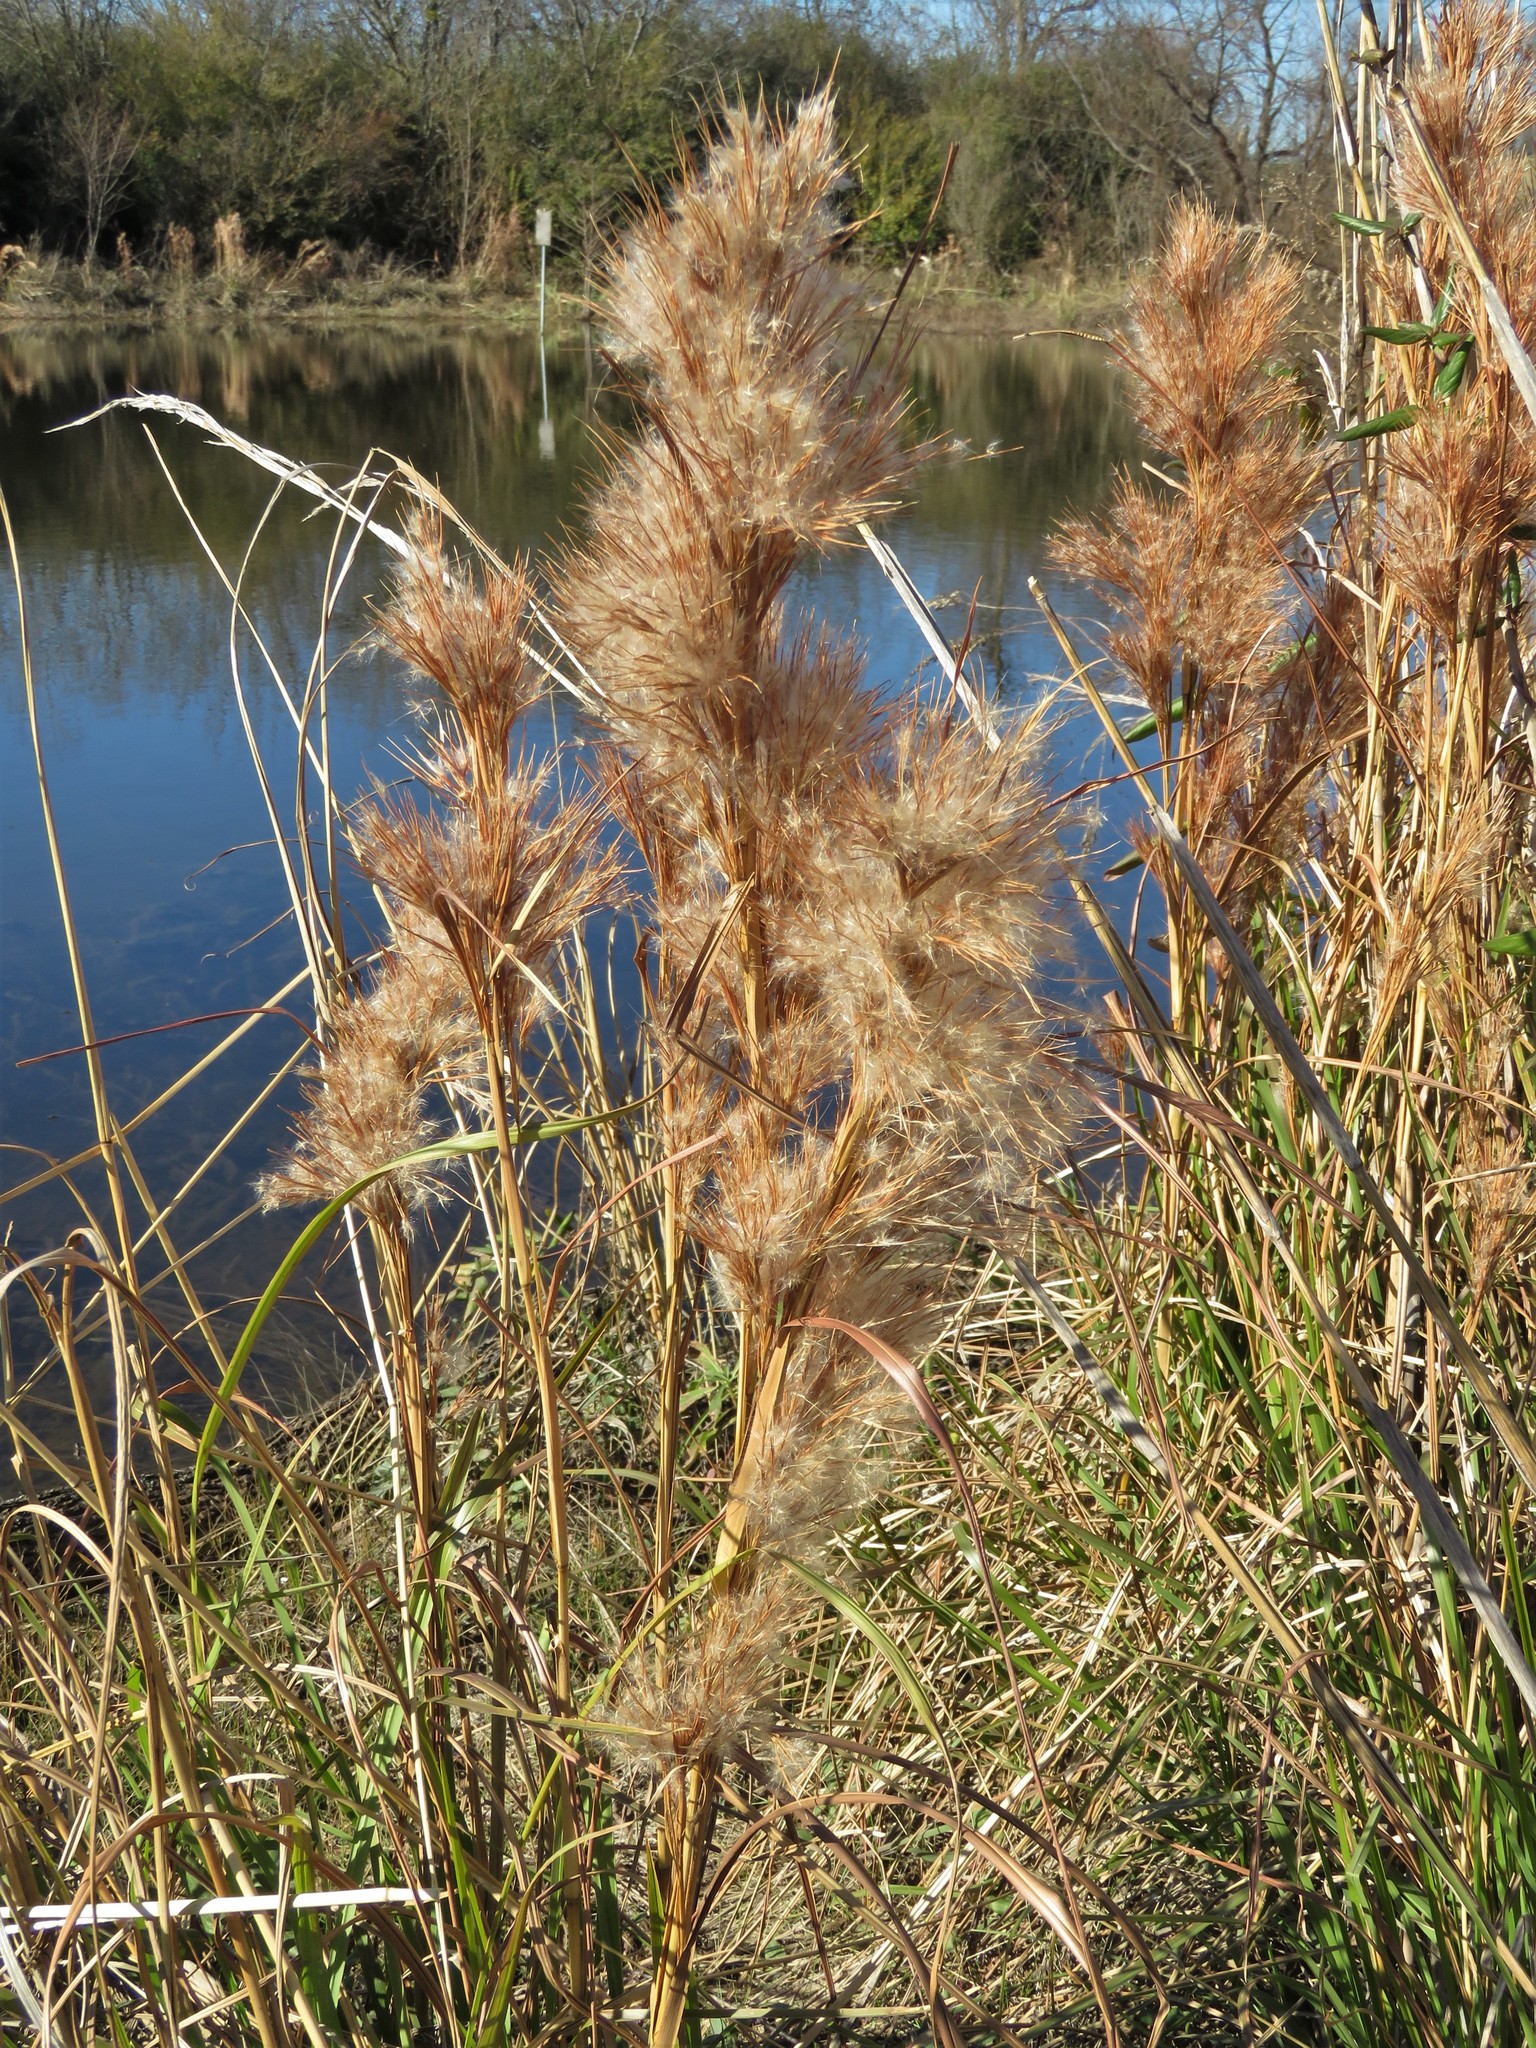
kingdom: Plantae
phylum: Tracheophyta
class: Liliopsida
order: Poales
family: Poaceae
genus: Andropogon
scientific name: Andropogon tenuispatheus
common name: Bushy bluestem
